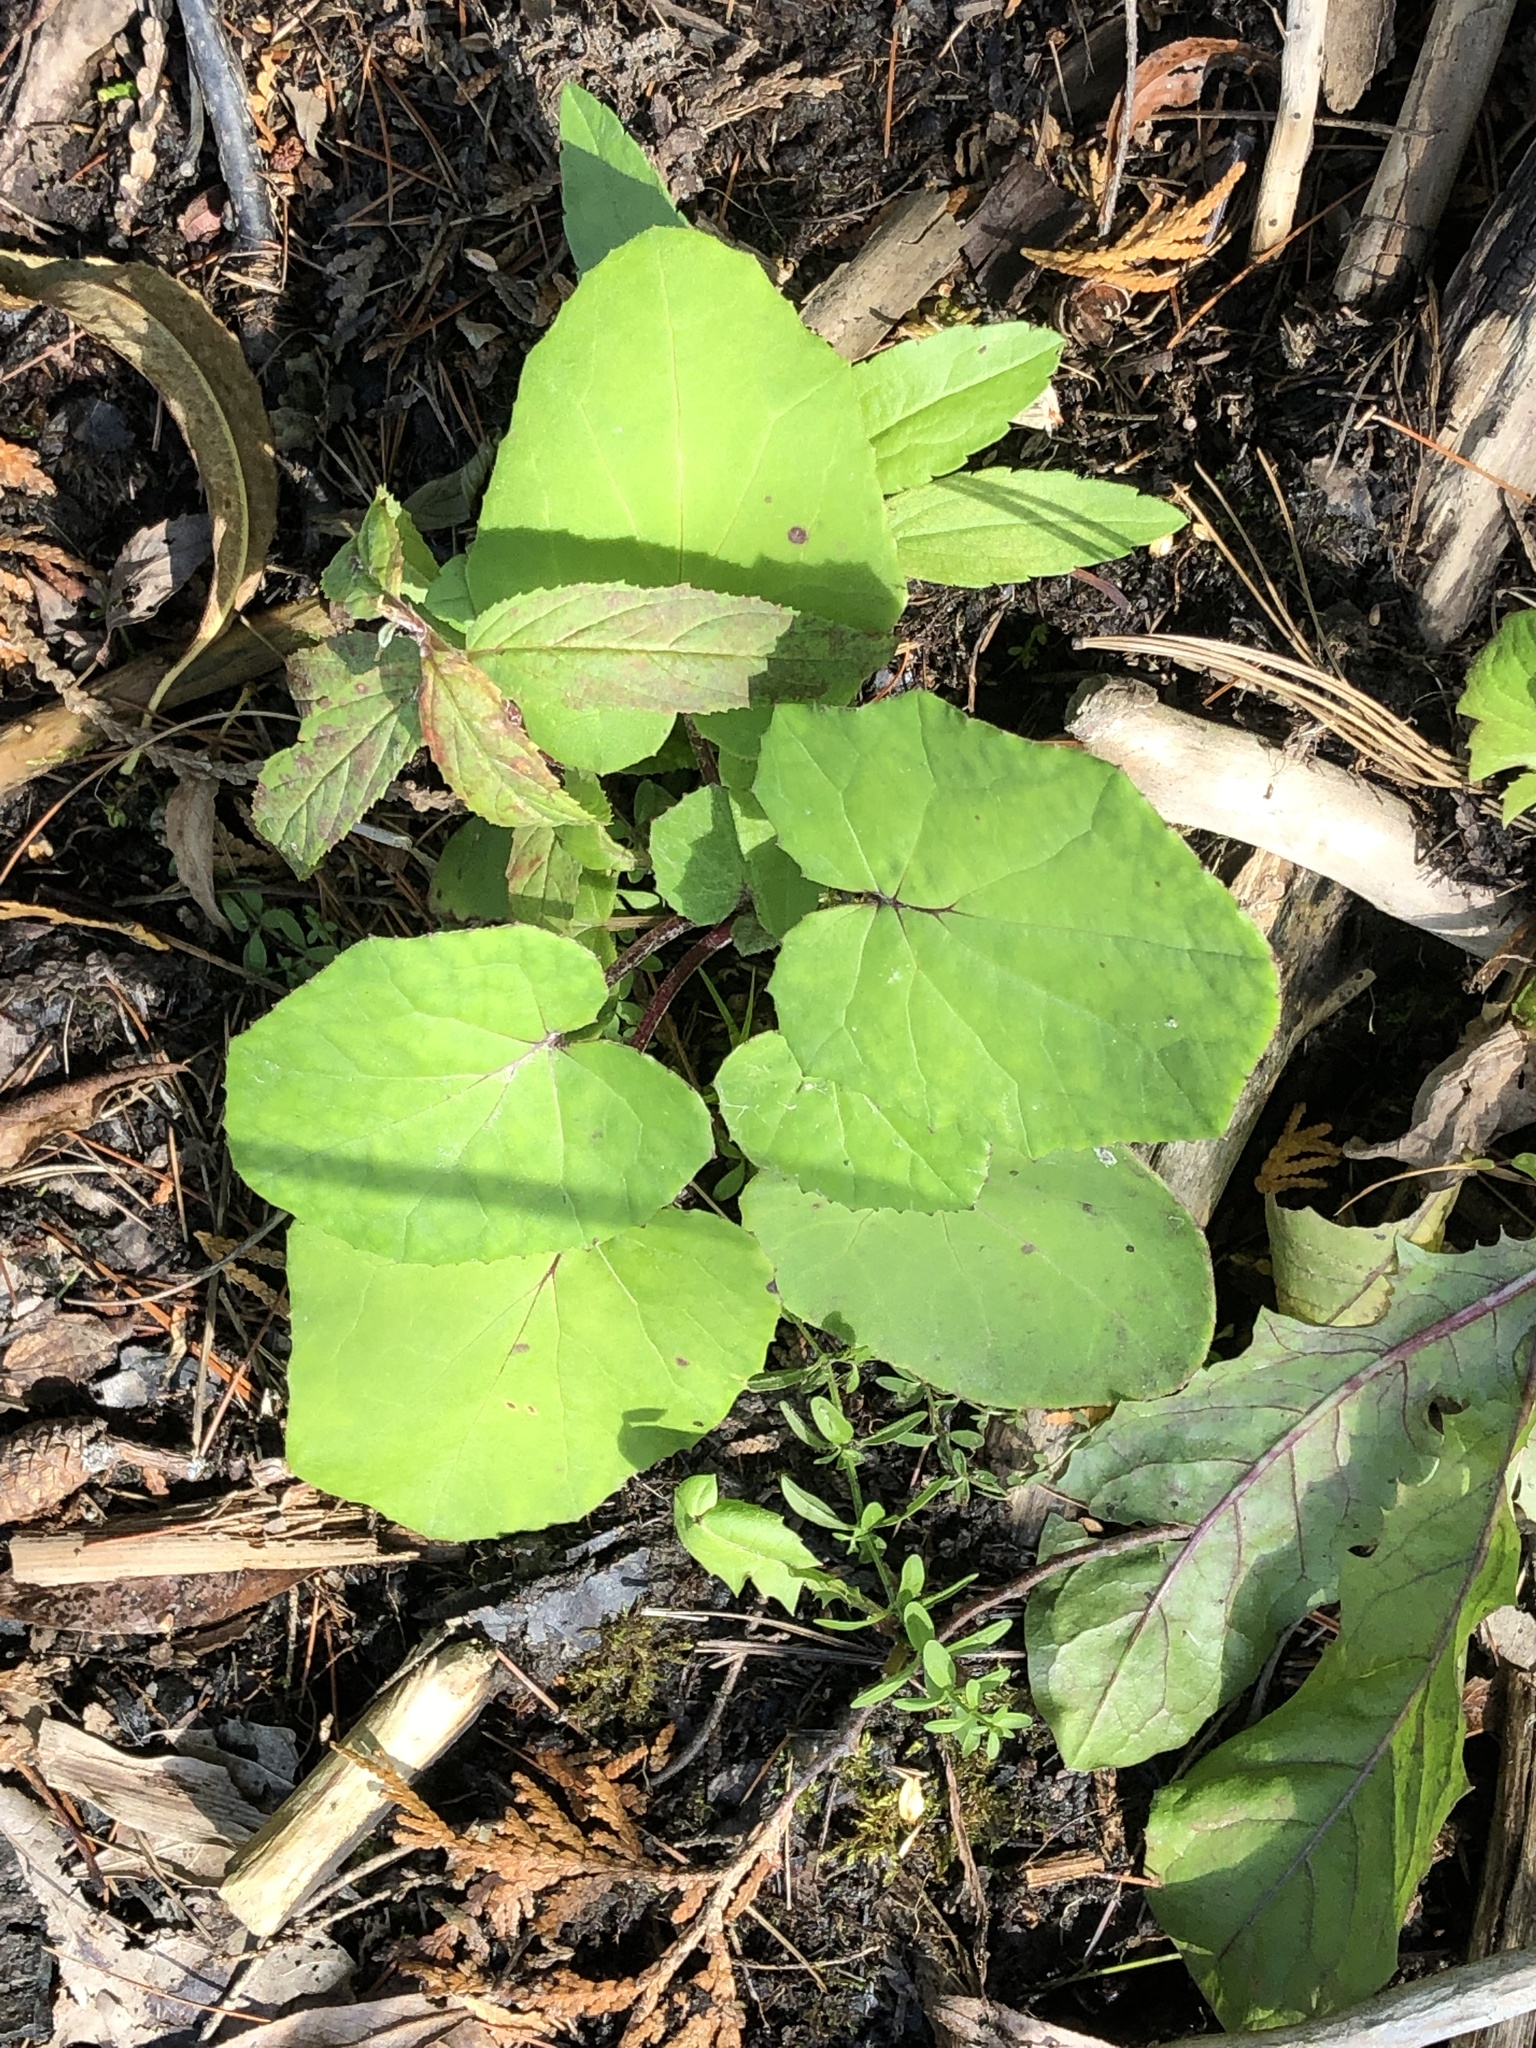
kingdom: Plantae
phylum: Tracheophyta
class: Magnoliopsida
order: Asterales
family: Asteraceae
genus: Tussilago
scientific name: Tussilago farfara
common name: Coltsfoot
